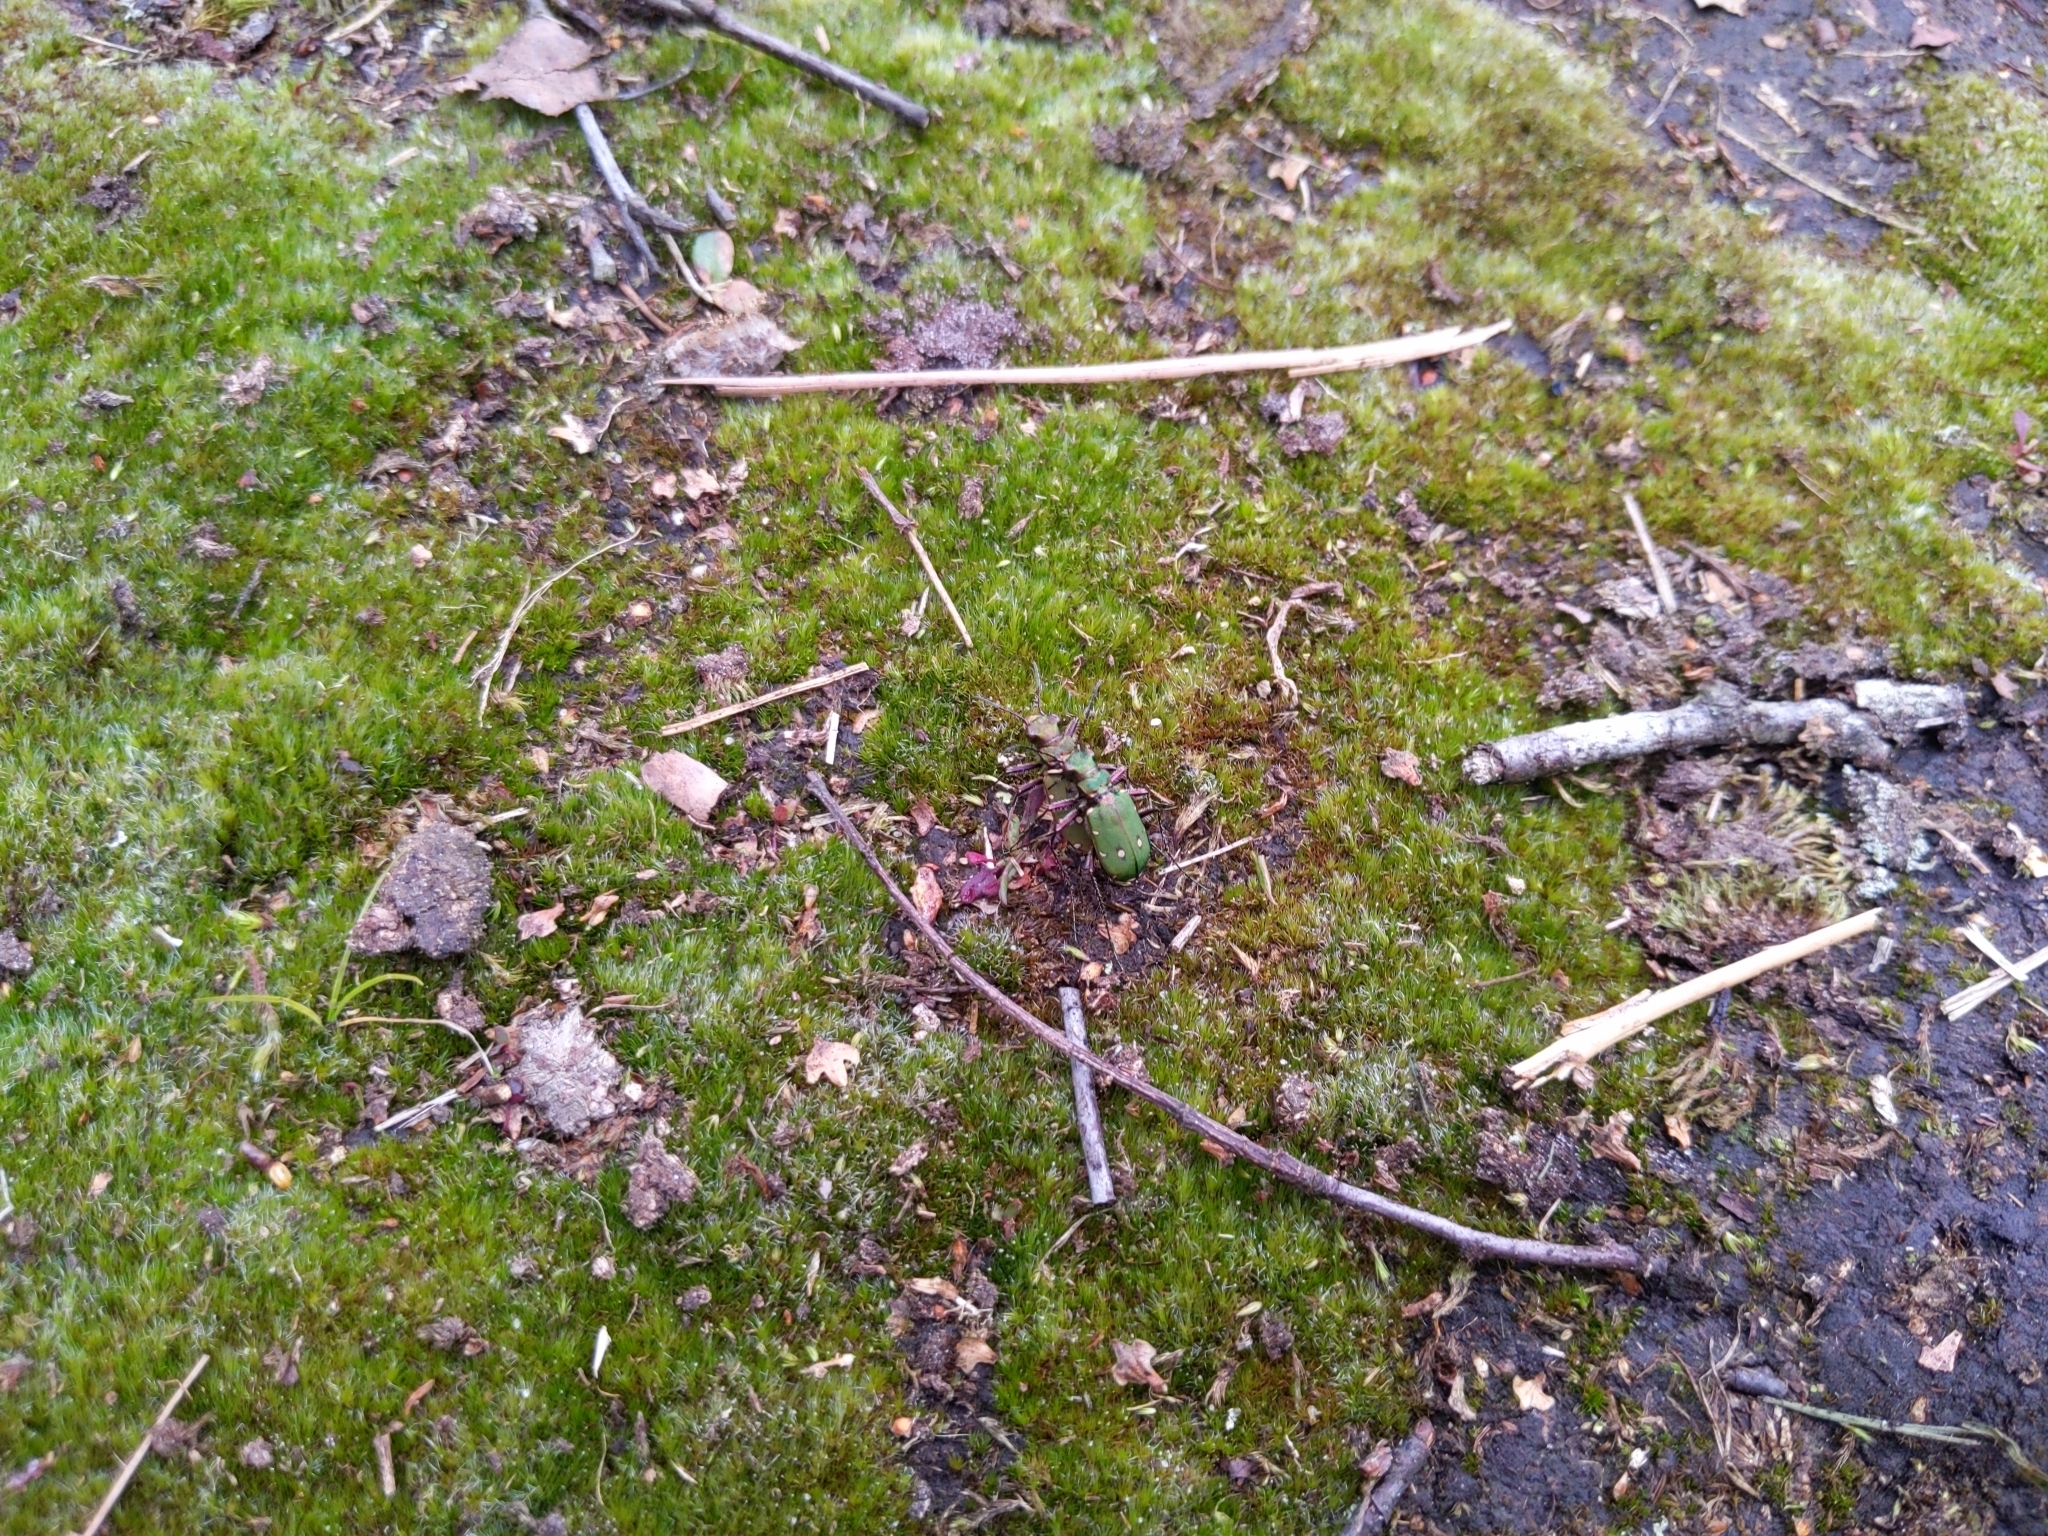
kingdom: Animalia
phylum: Arthropoda
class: Insecta
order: Coleoptera
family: Carabidae
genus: Cicindela
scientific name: Cicindela campestris
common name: Common tiger beetle
